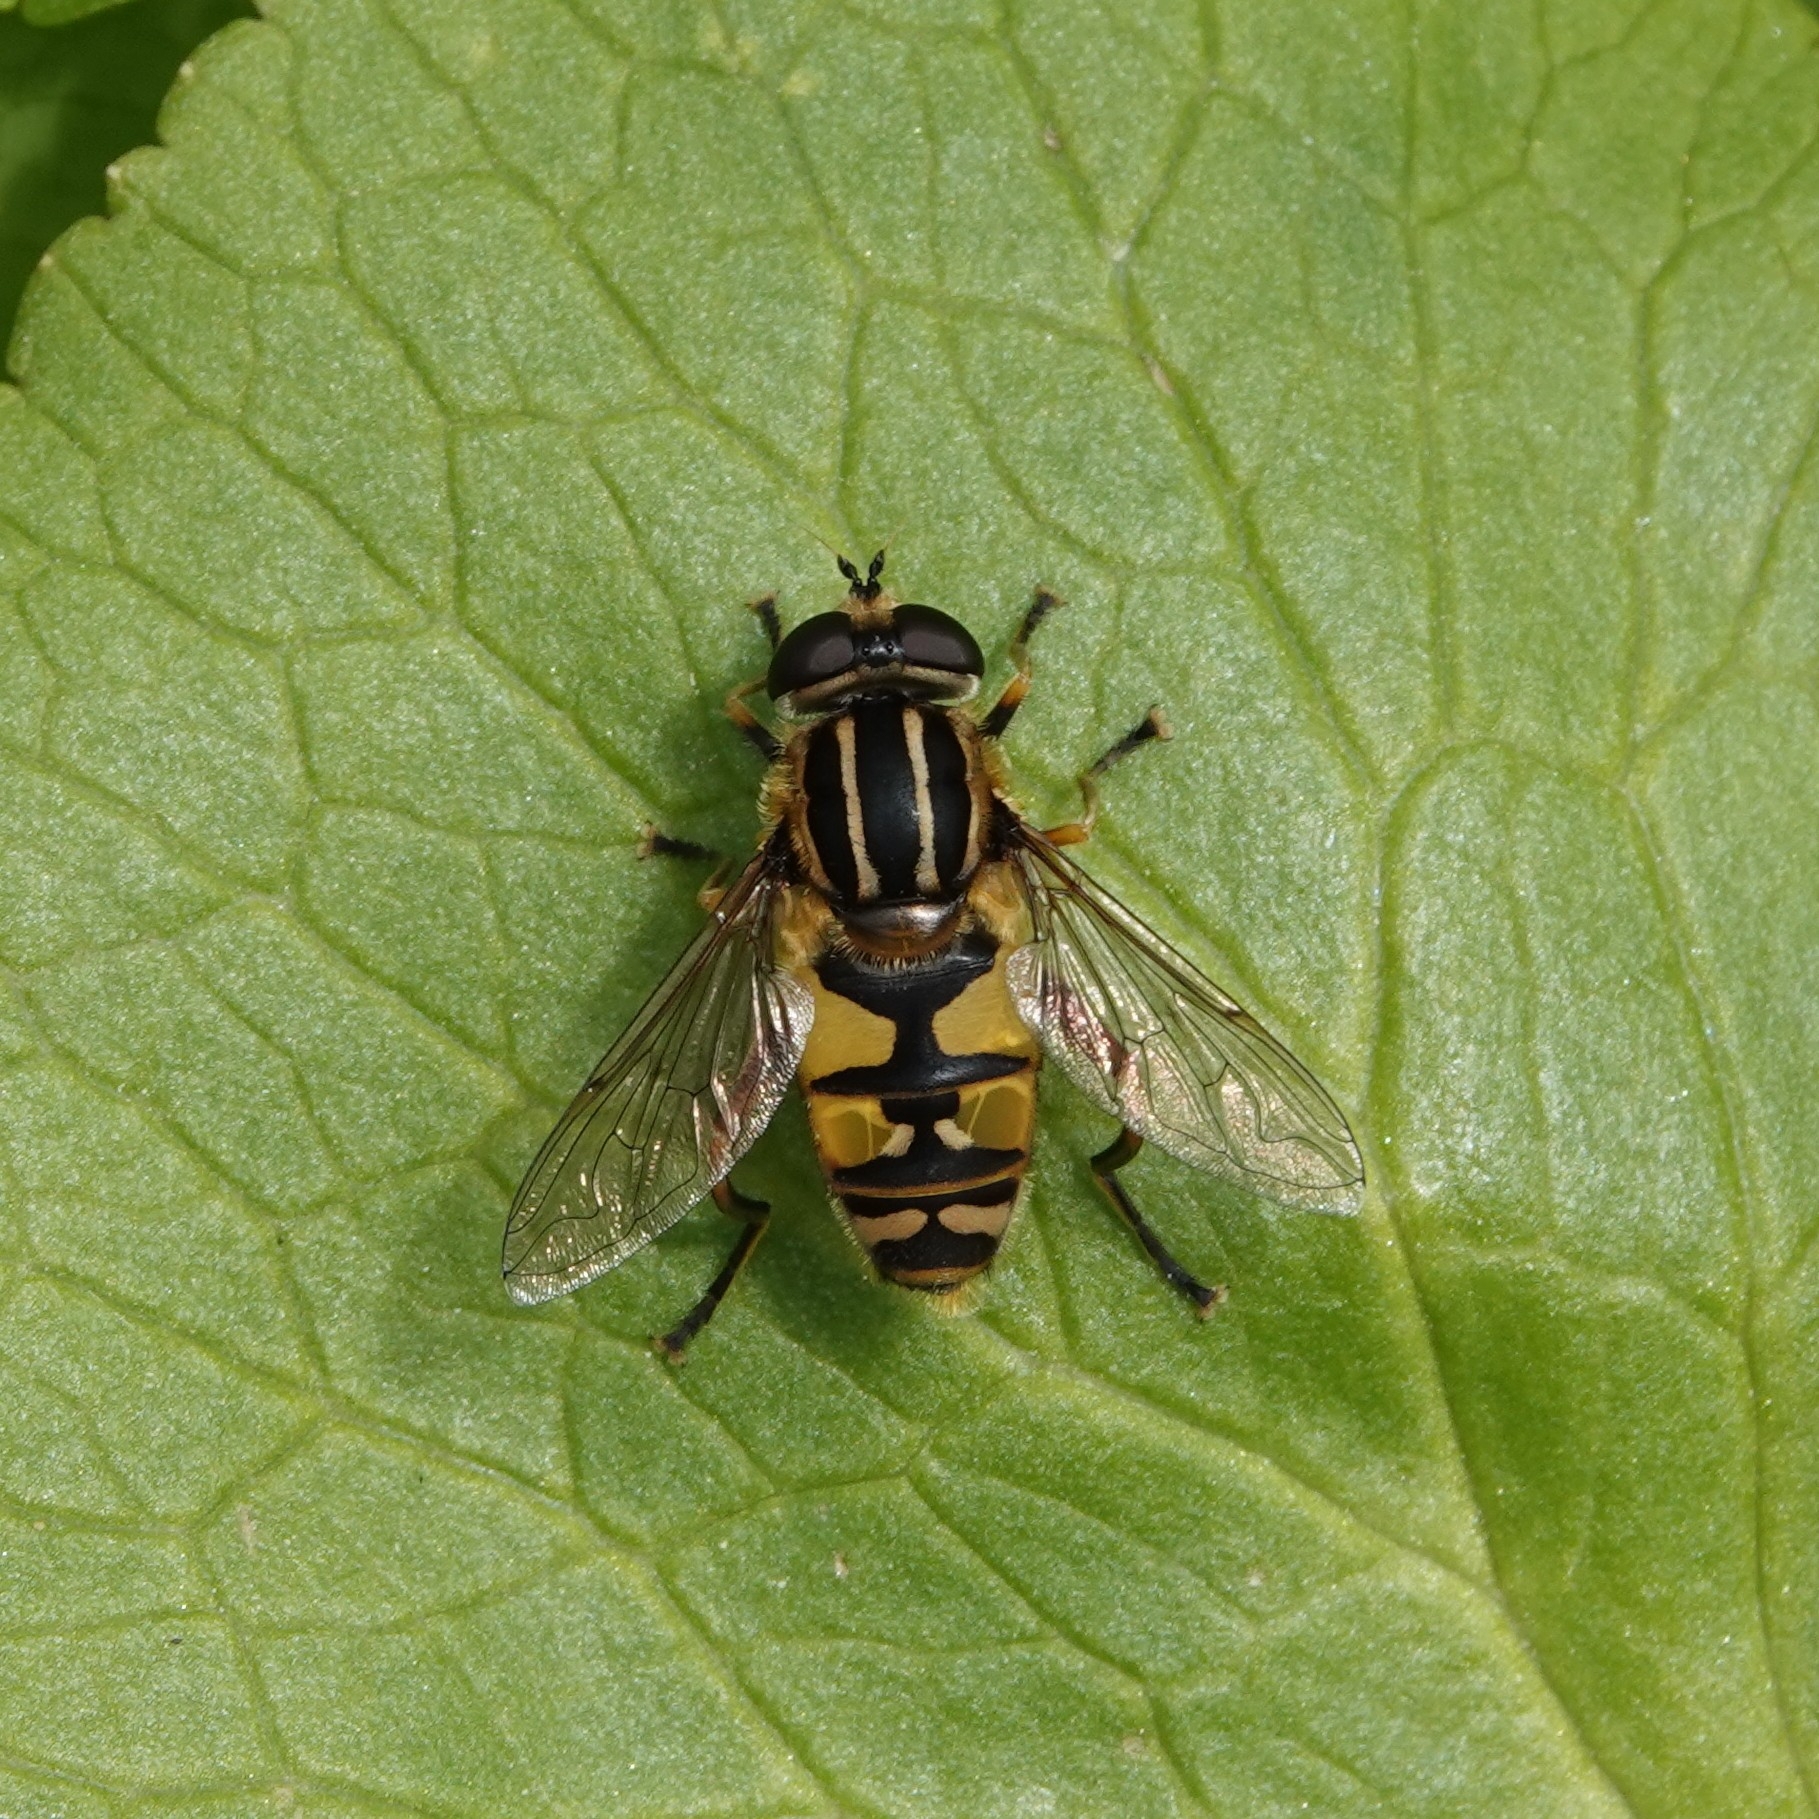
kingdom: Animalia
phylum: Arthropoda
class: Insecta
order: Diptera
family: Syrphidae
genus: Helophilus
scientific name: Helophilus pendulus
